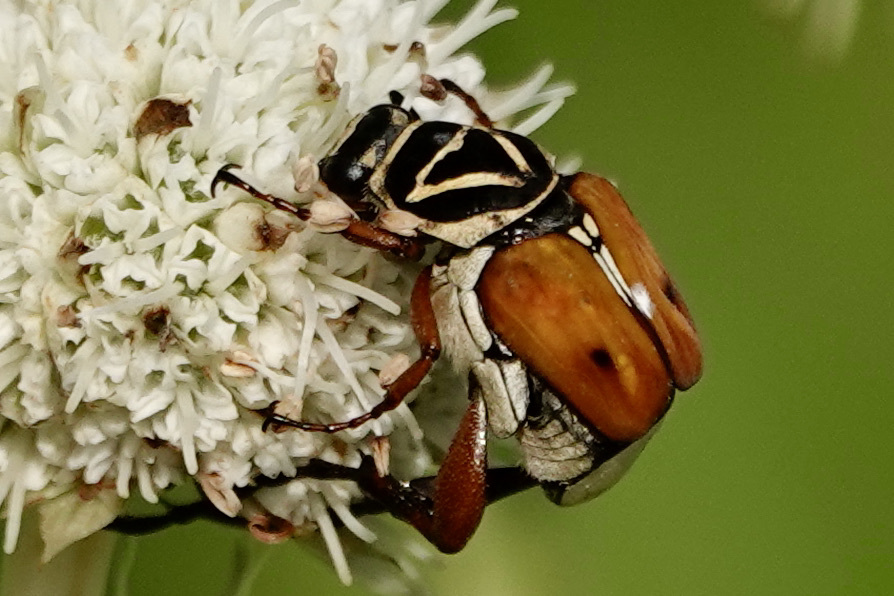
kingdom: Animalia
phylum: Arthropoda
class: Insecta
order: Coleoptera
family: Scarabaeidae
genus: Trigonopeltastes
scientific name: Trigonopeltastes delta
